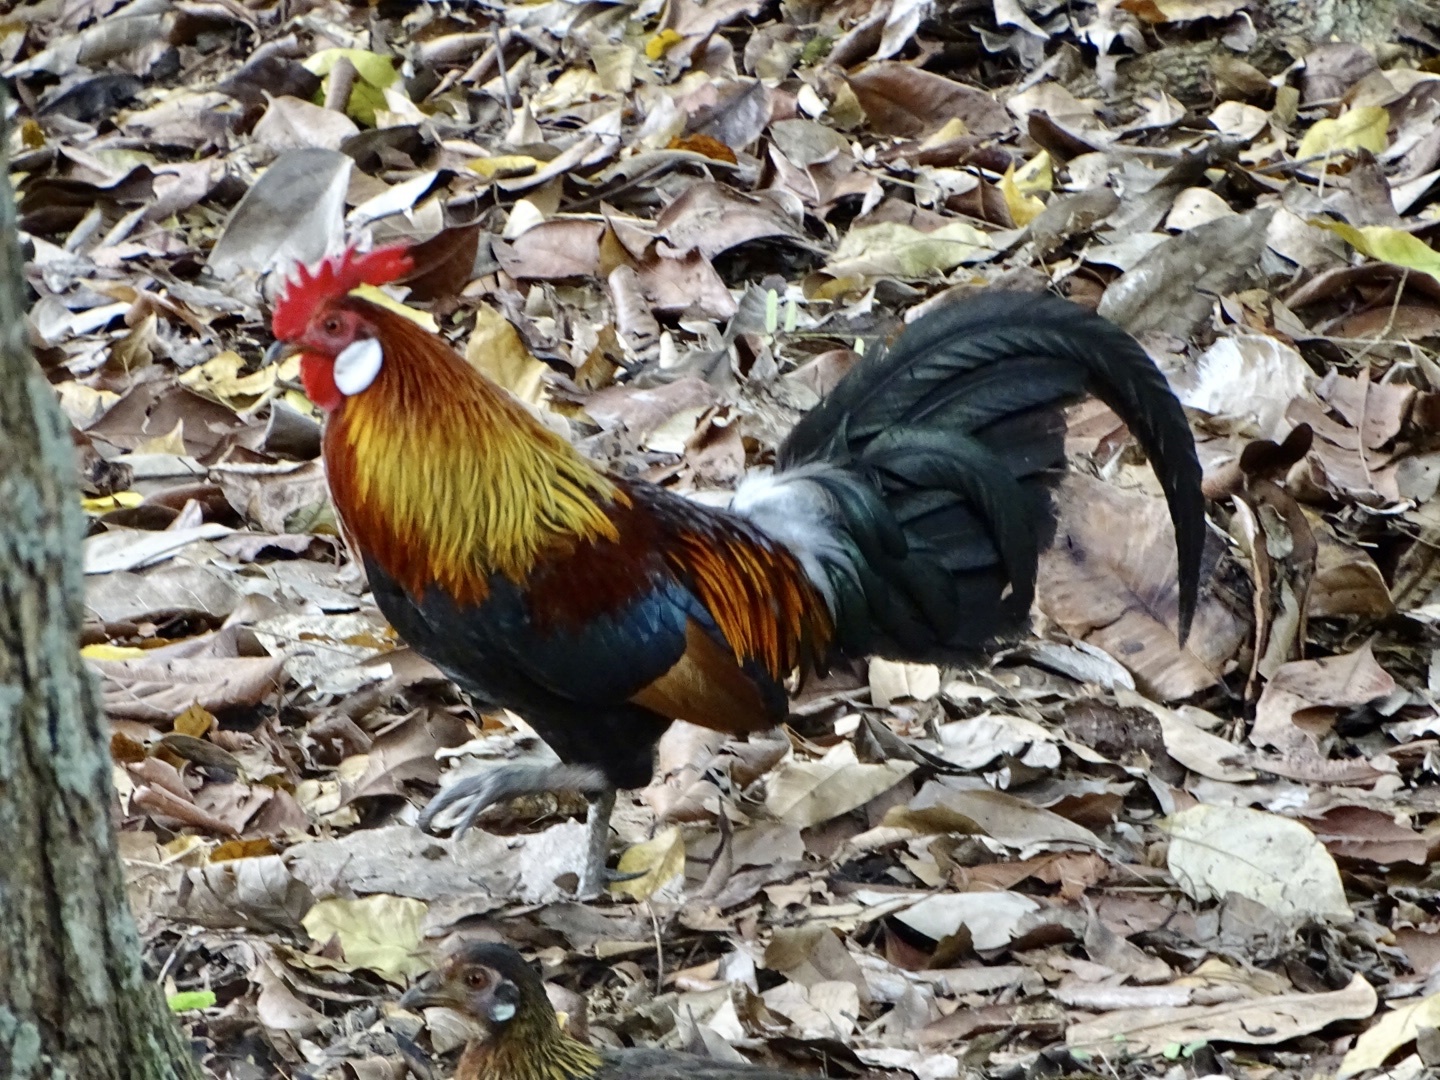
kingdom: Animalia
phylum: Chordata
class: Aves
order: Galliformes
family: Phasianidae
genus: Gallus
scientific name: Gallus gallus
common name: Red junglefowl
